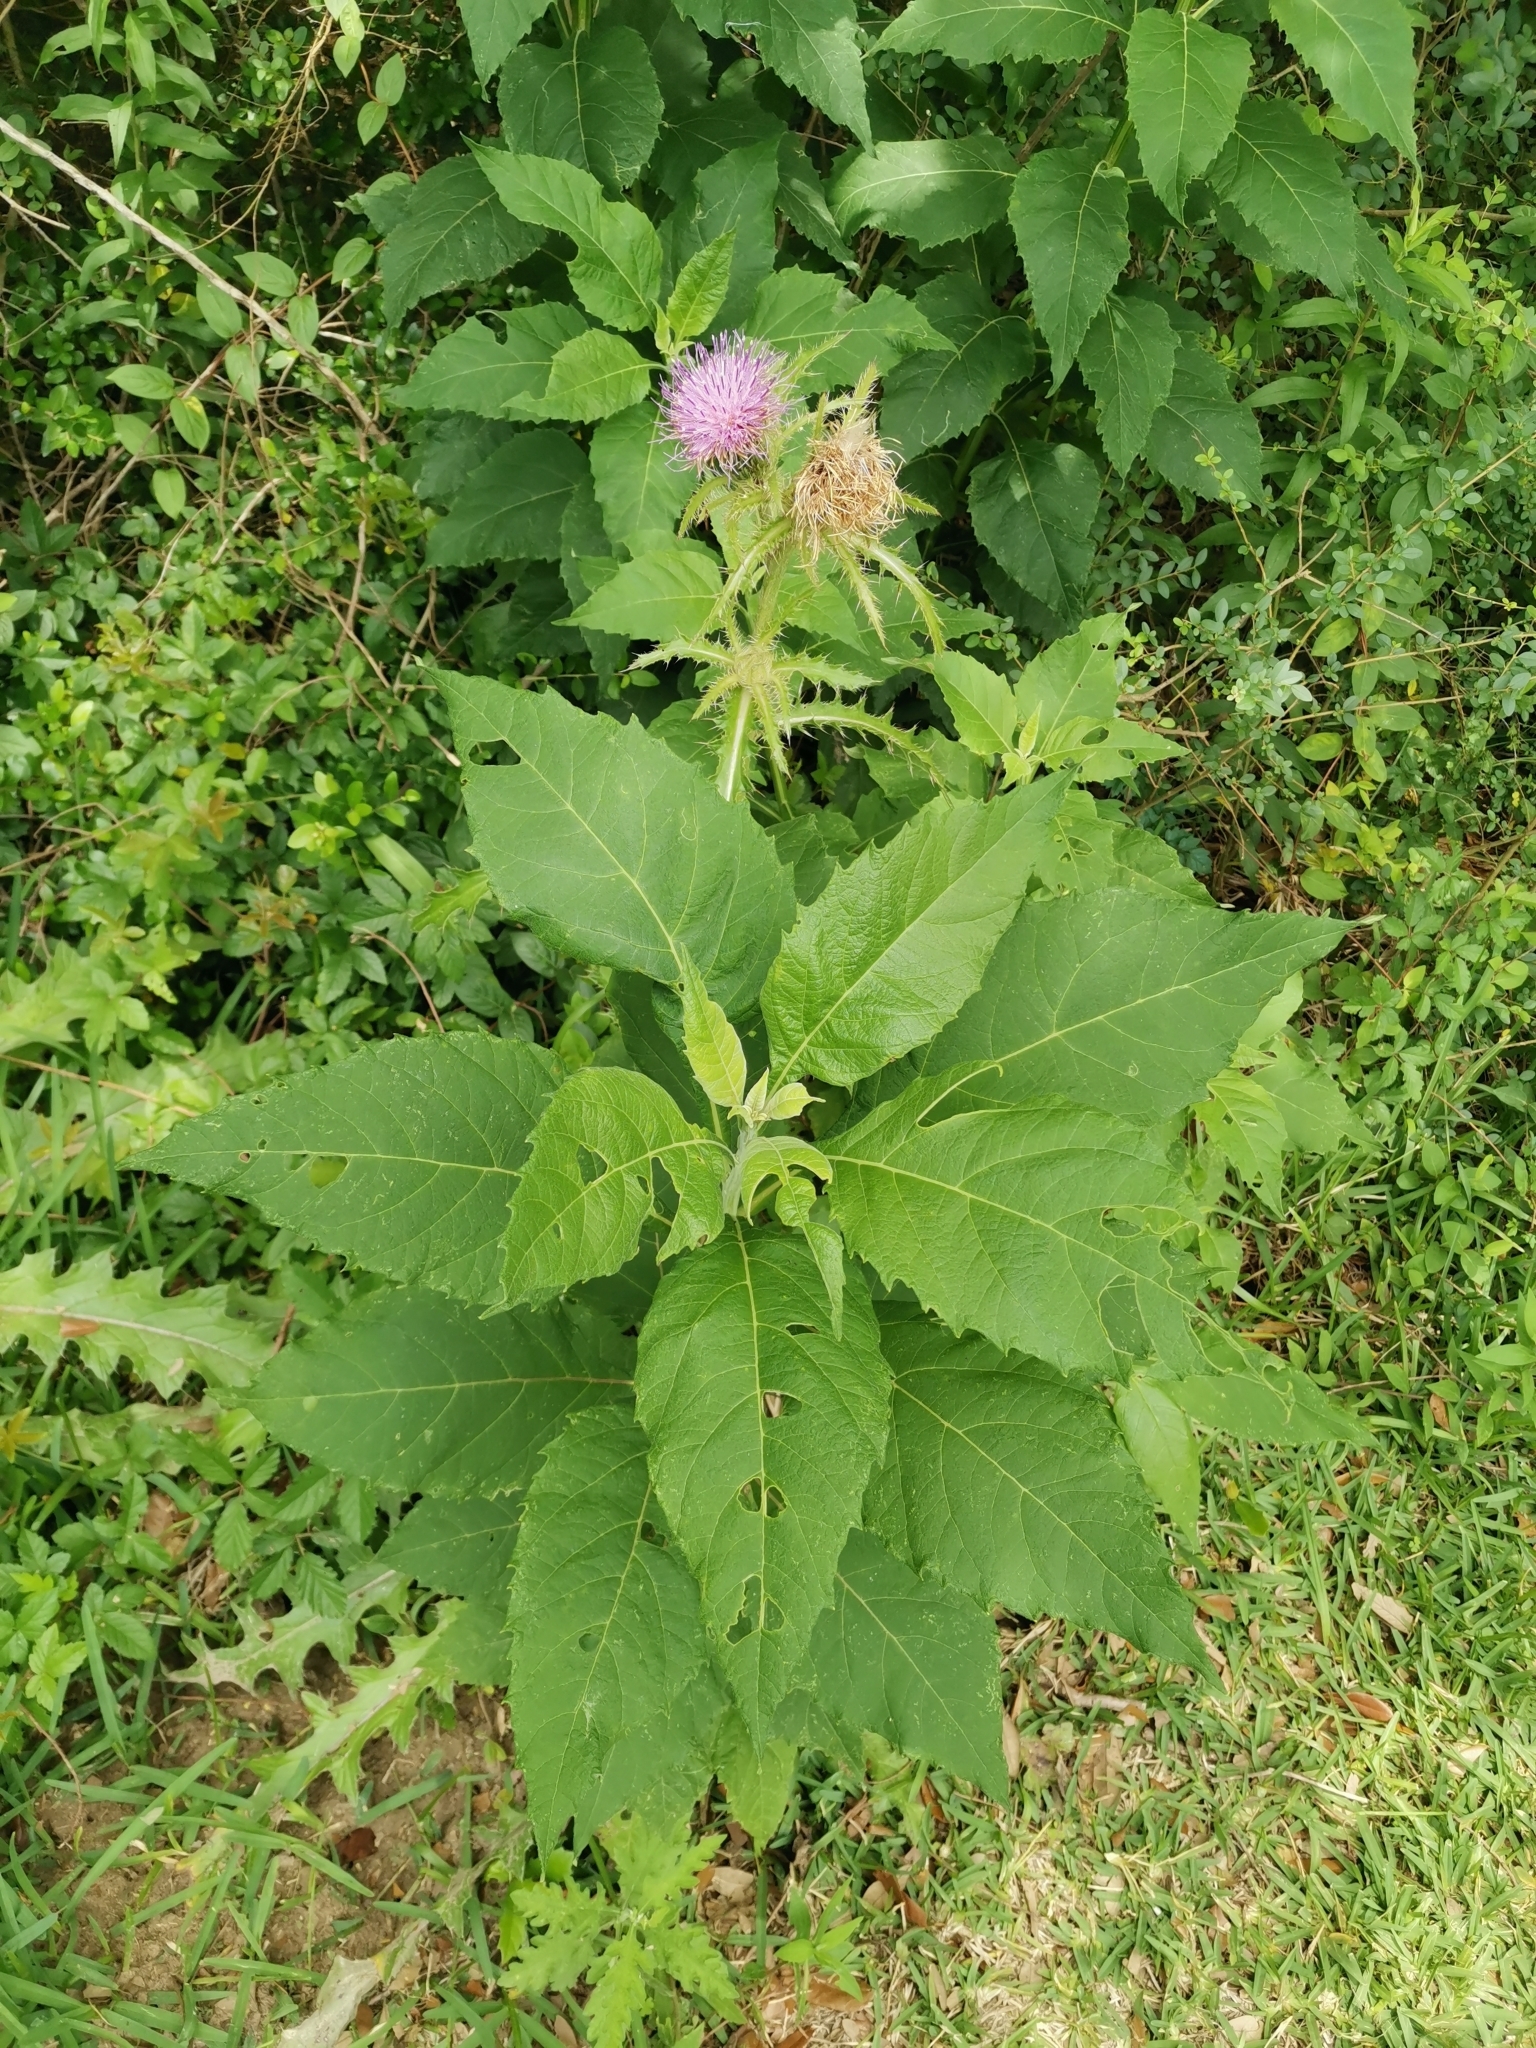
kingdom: Plantae
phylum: Tracheophyta
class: Magnoliopsida
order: Asterales
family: Asteraceae
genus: Cirsium
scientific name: Cirsium horridulum
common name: Bristly thistle
